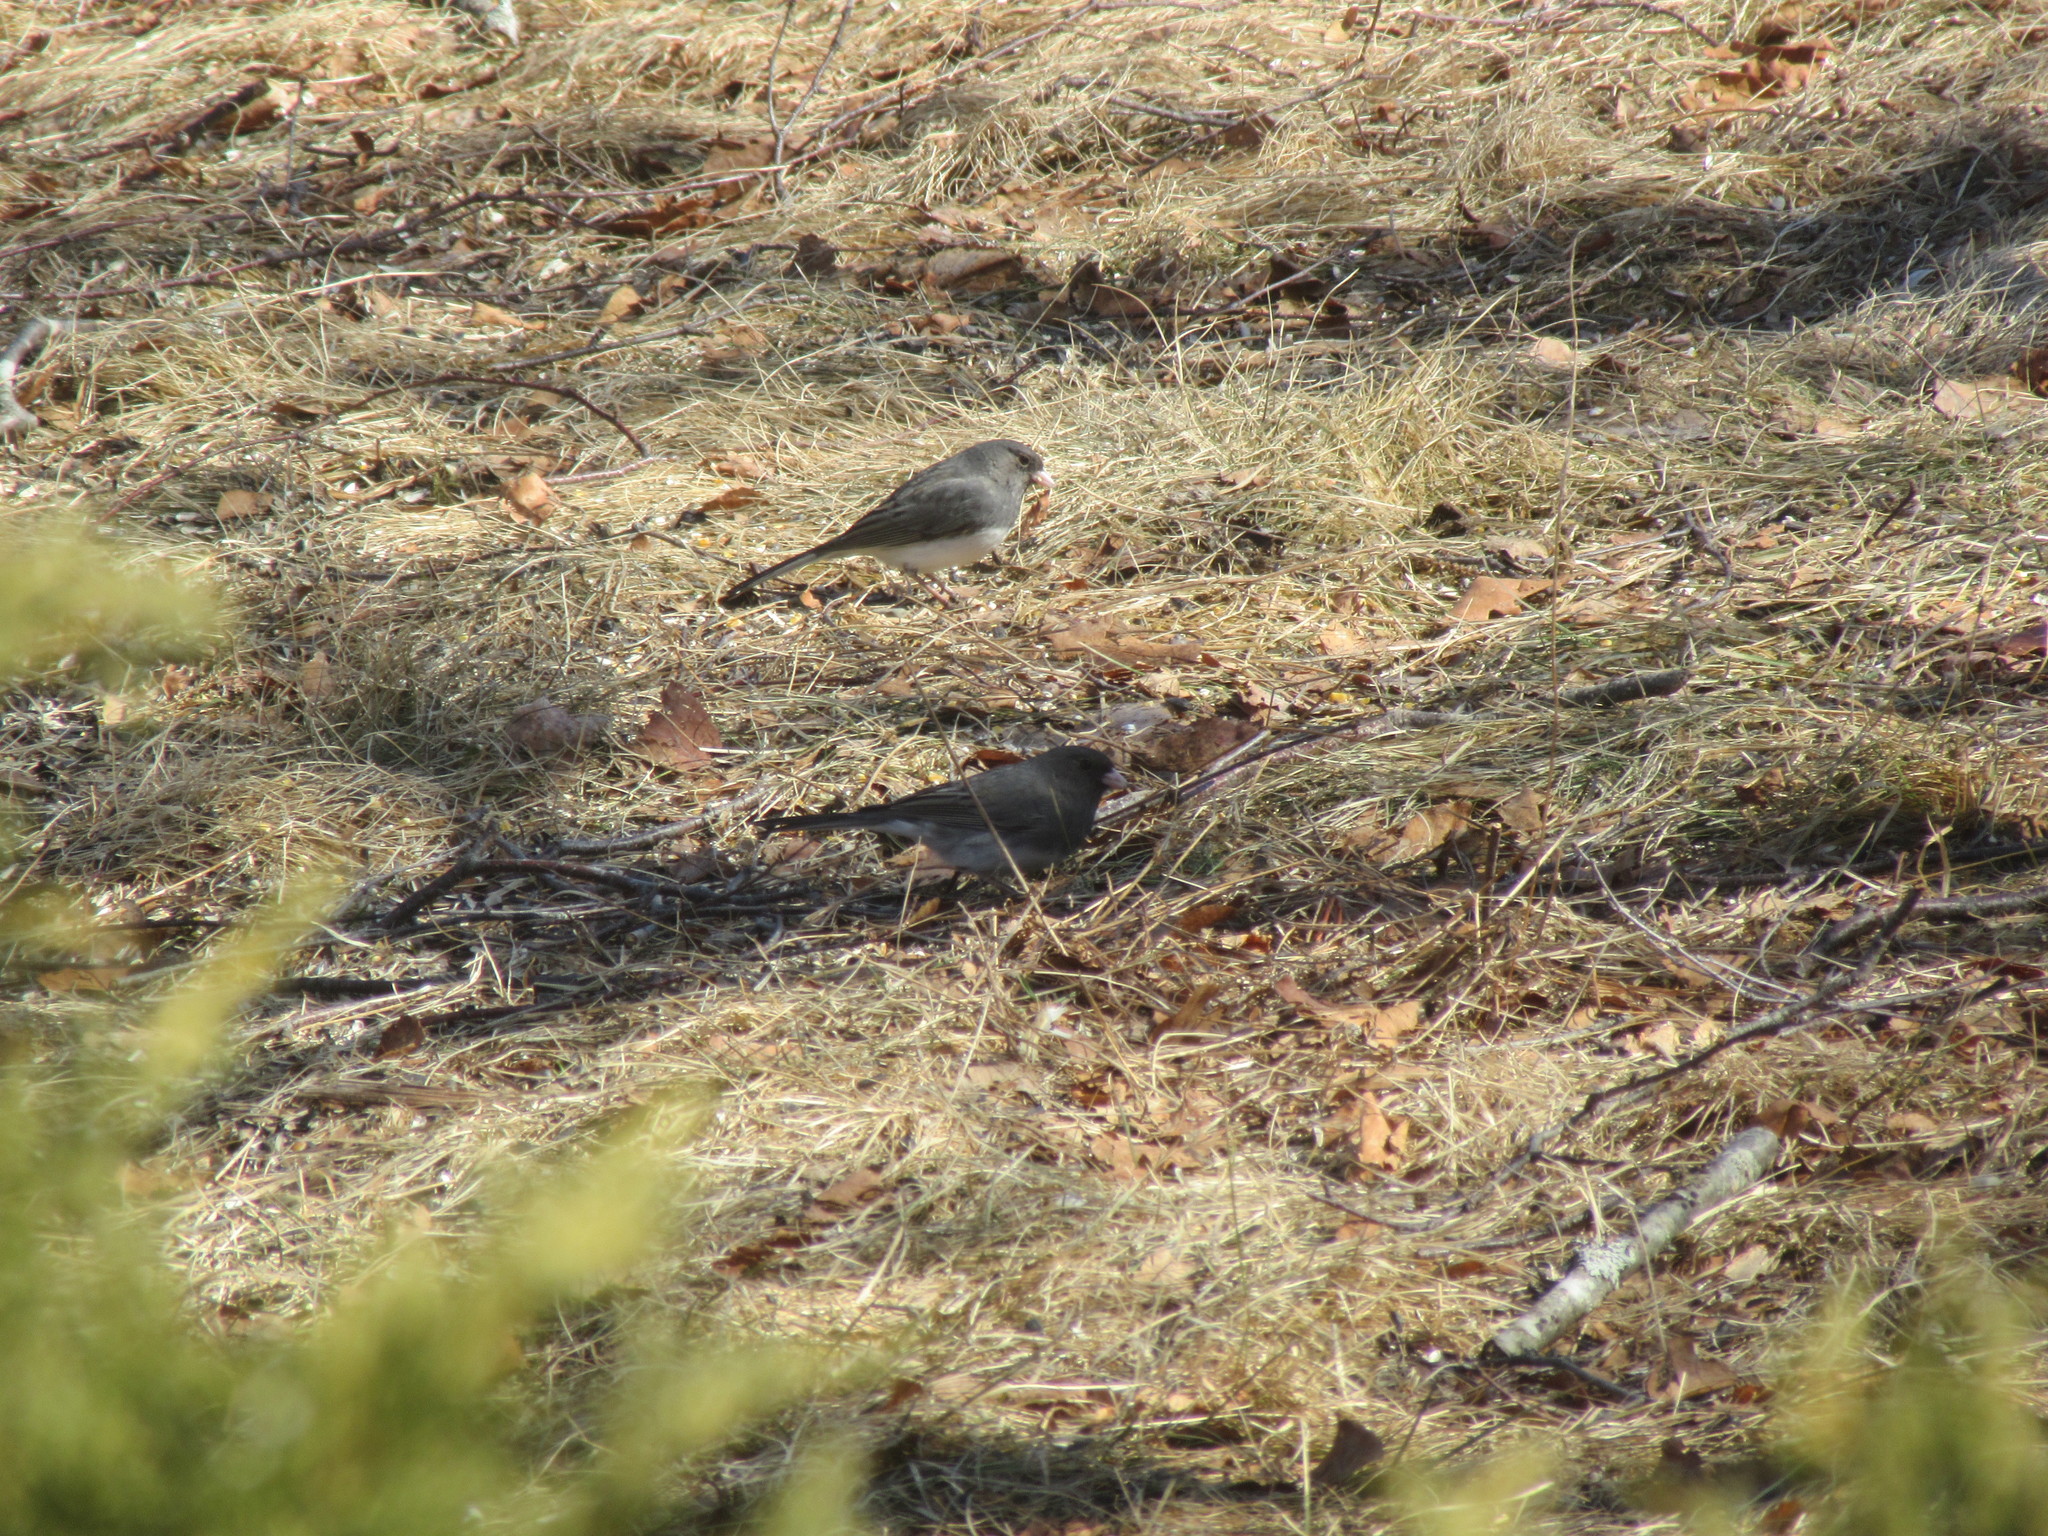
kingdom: Animalia
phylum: Chordata
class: Aves
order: Passeriformes
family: Passerellidae
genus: Junco
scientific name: Junco hyemalis
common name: Dark-eyed junco
